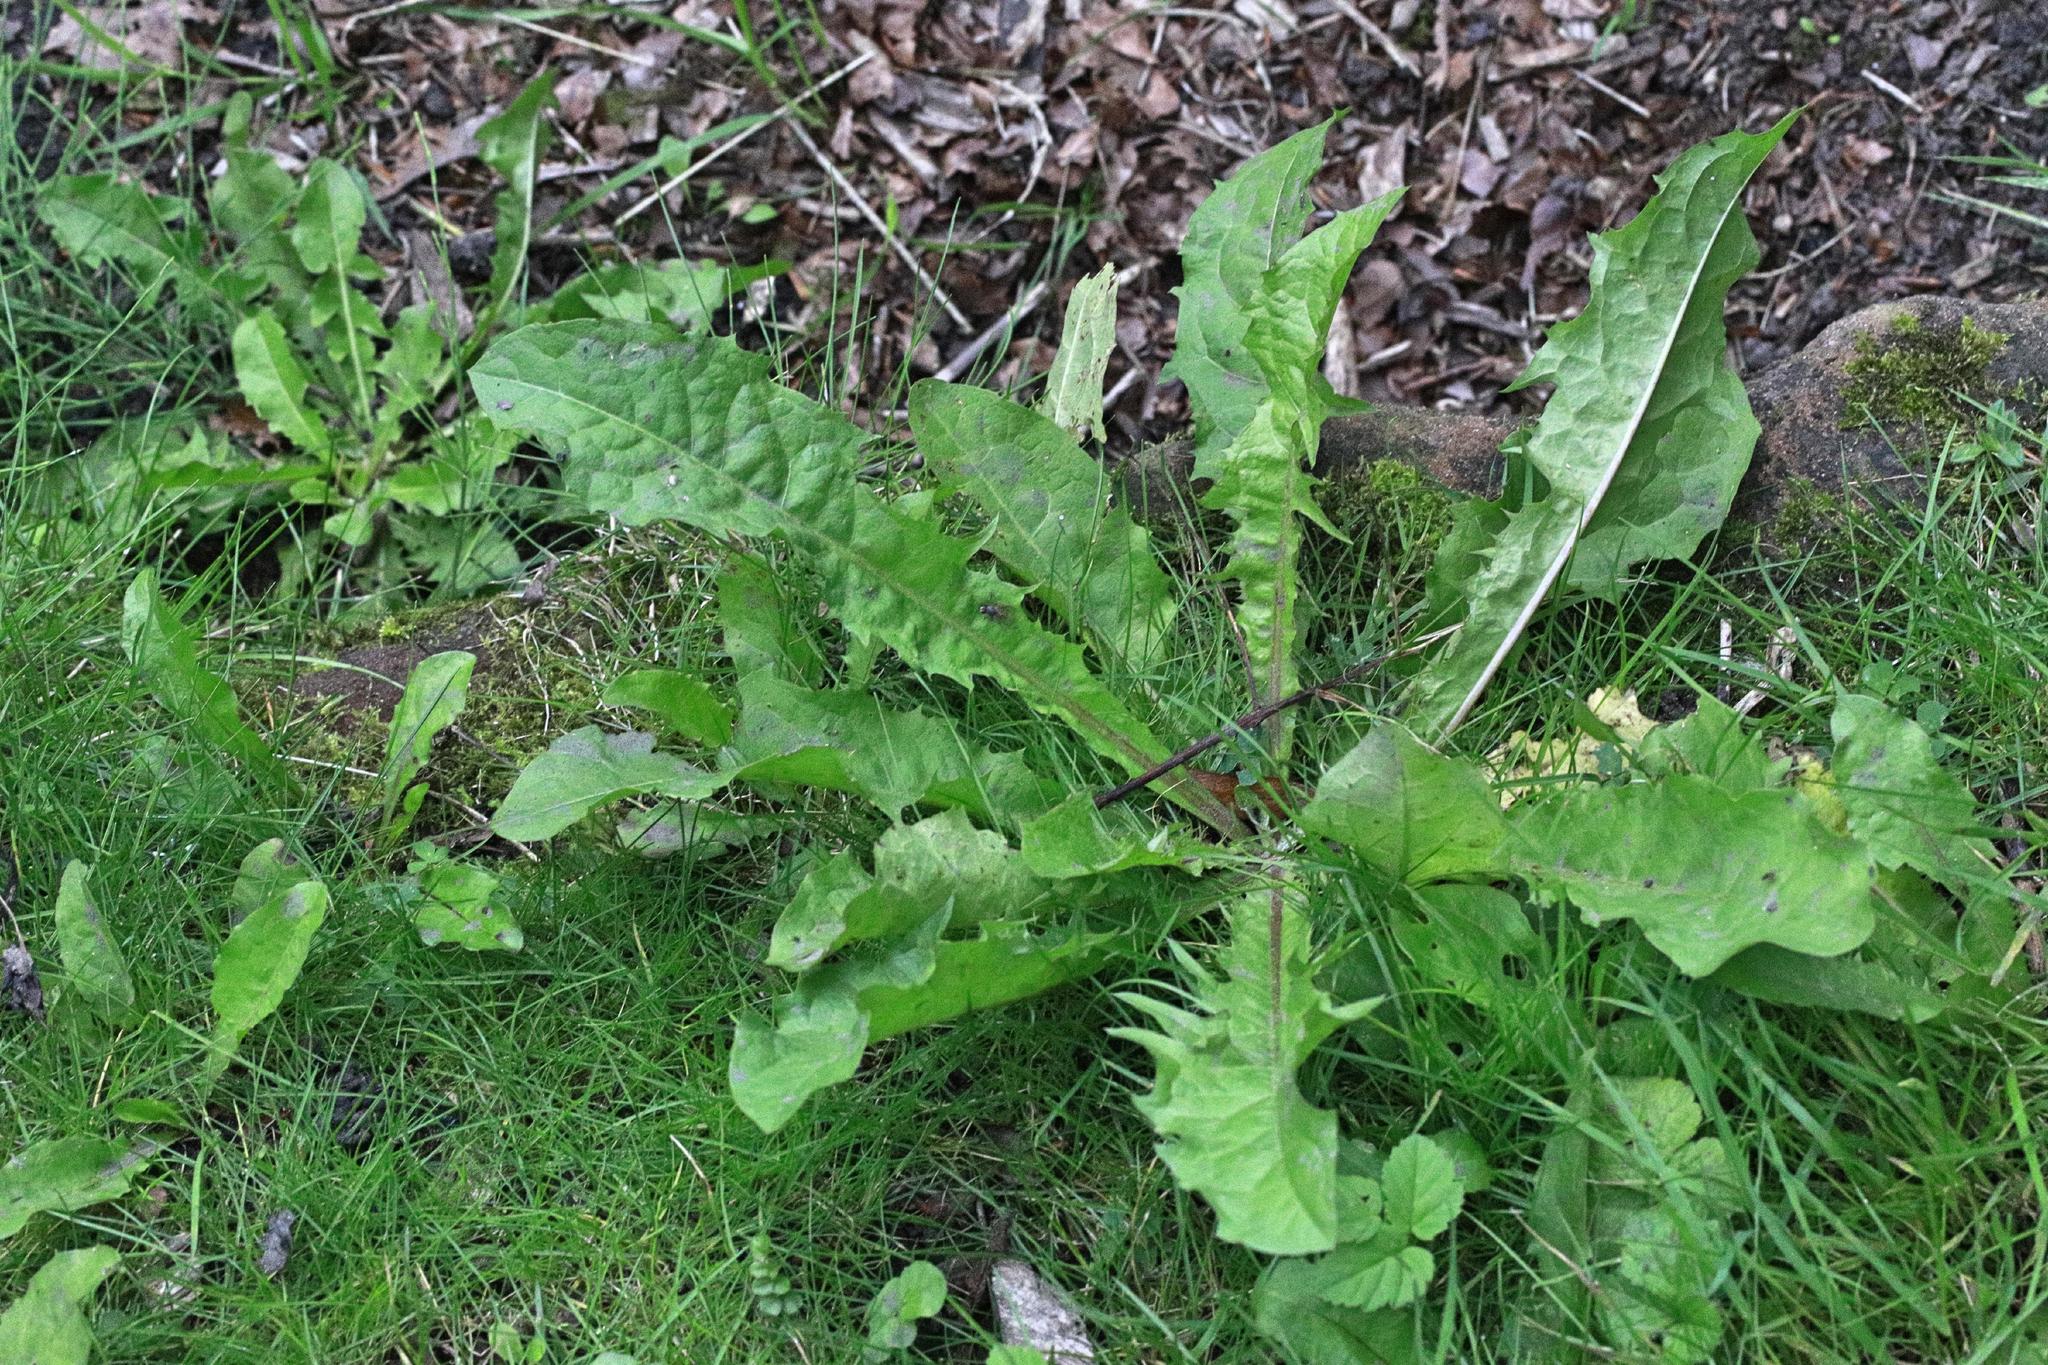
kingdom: Plantae
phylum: Tracheophyta
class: Magnoliopsida
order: Asterales
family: Asteraceae
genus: Taraxacum
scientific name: Taraxacum officinale
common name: Common dandelion
